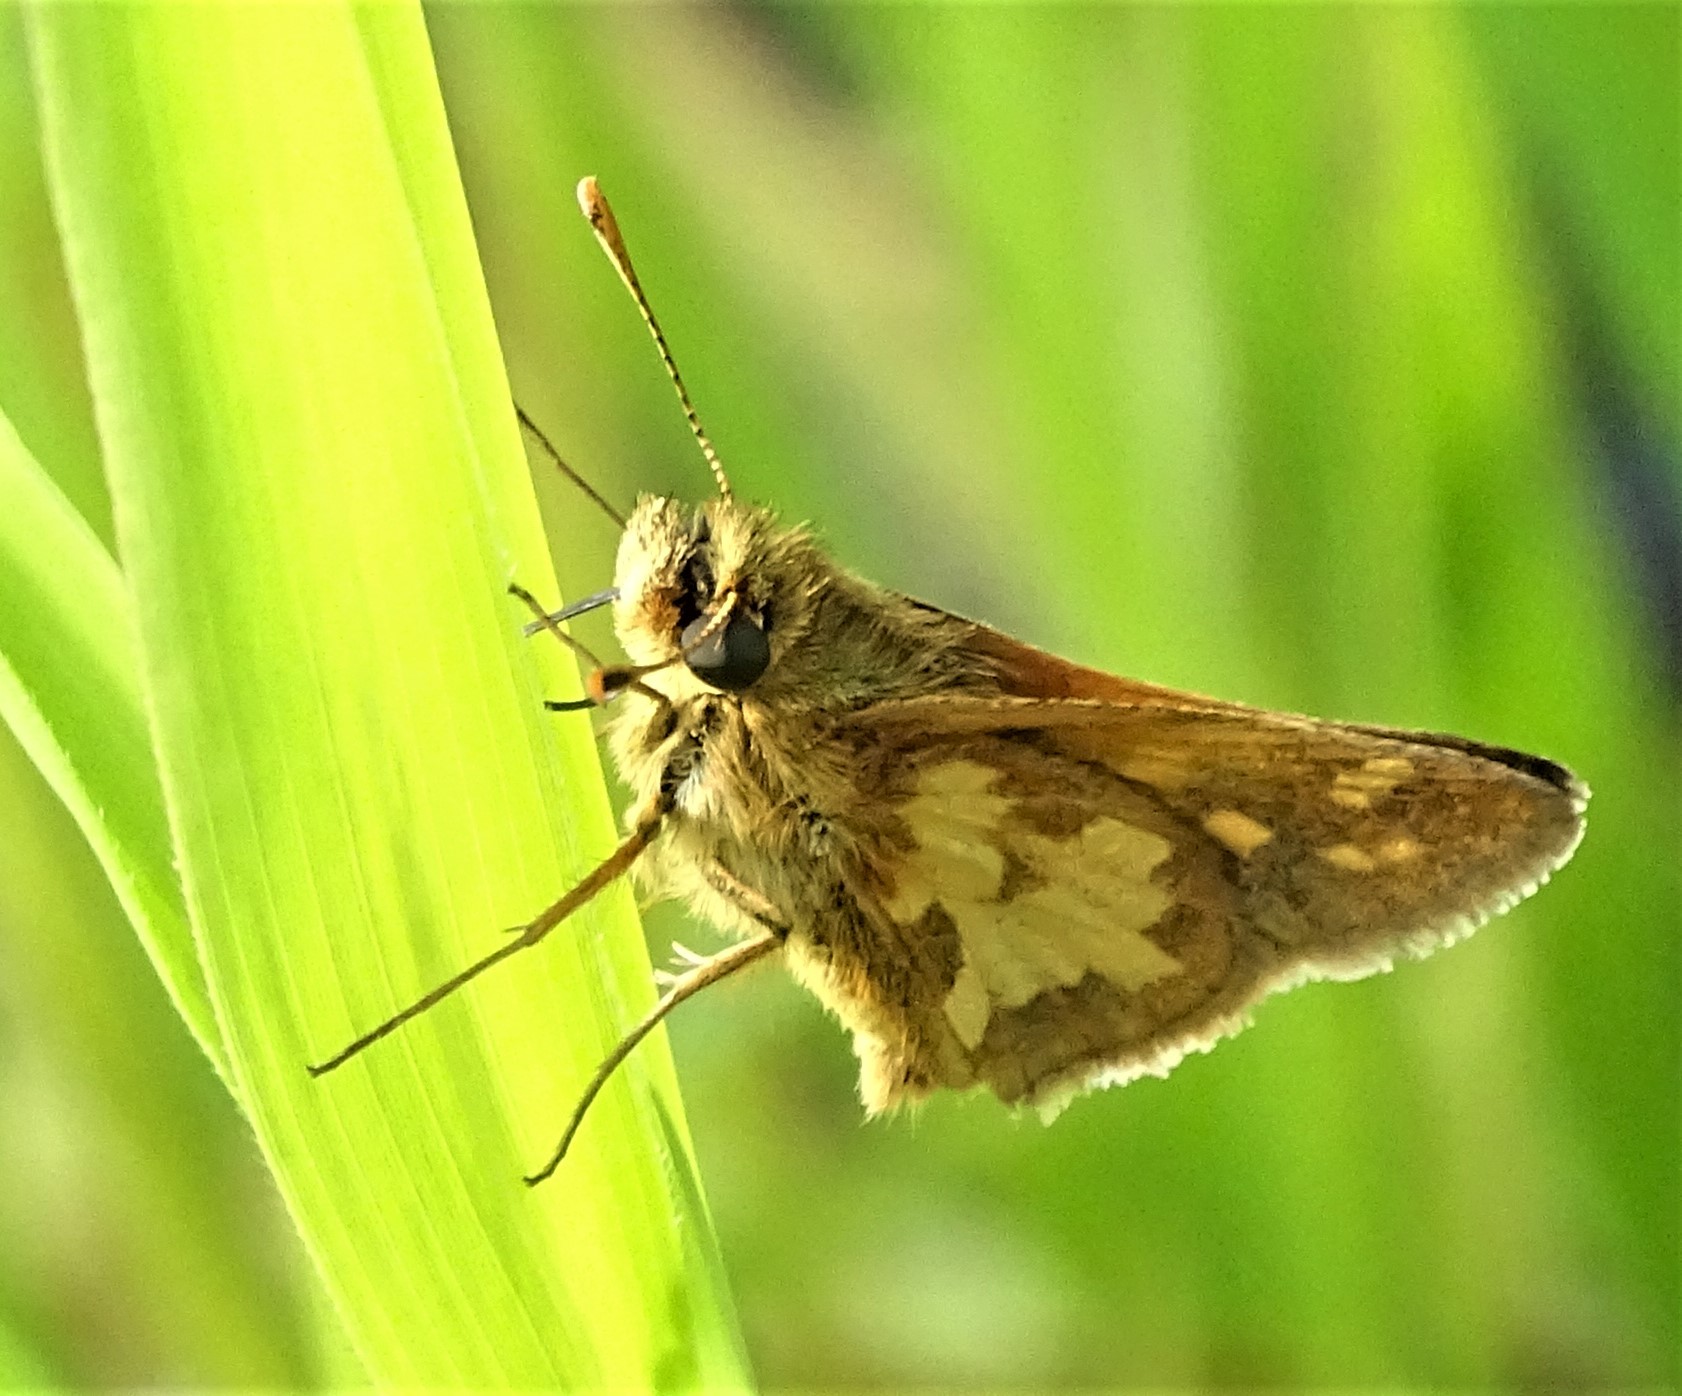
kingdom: Animalia
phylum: Arthropoda
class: Insecta
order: Lepidoptera
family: Hesperiidae
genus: Polites
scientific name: Polites coras
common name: Peck's skipper
